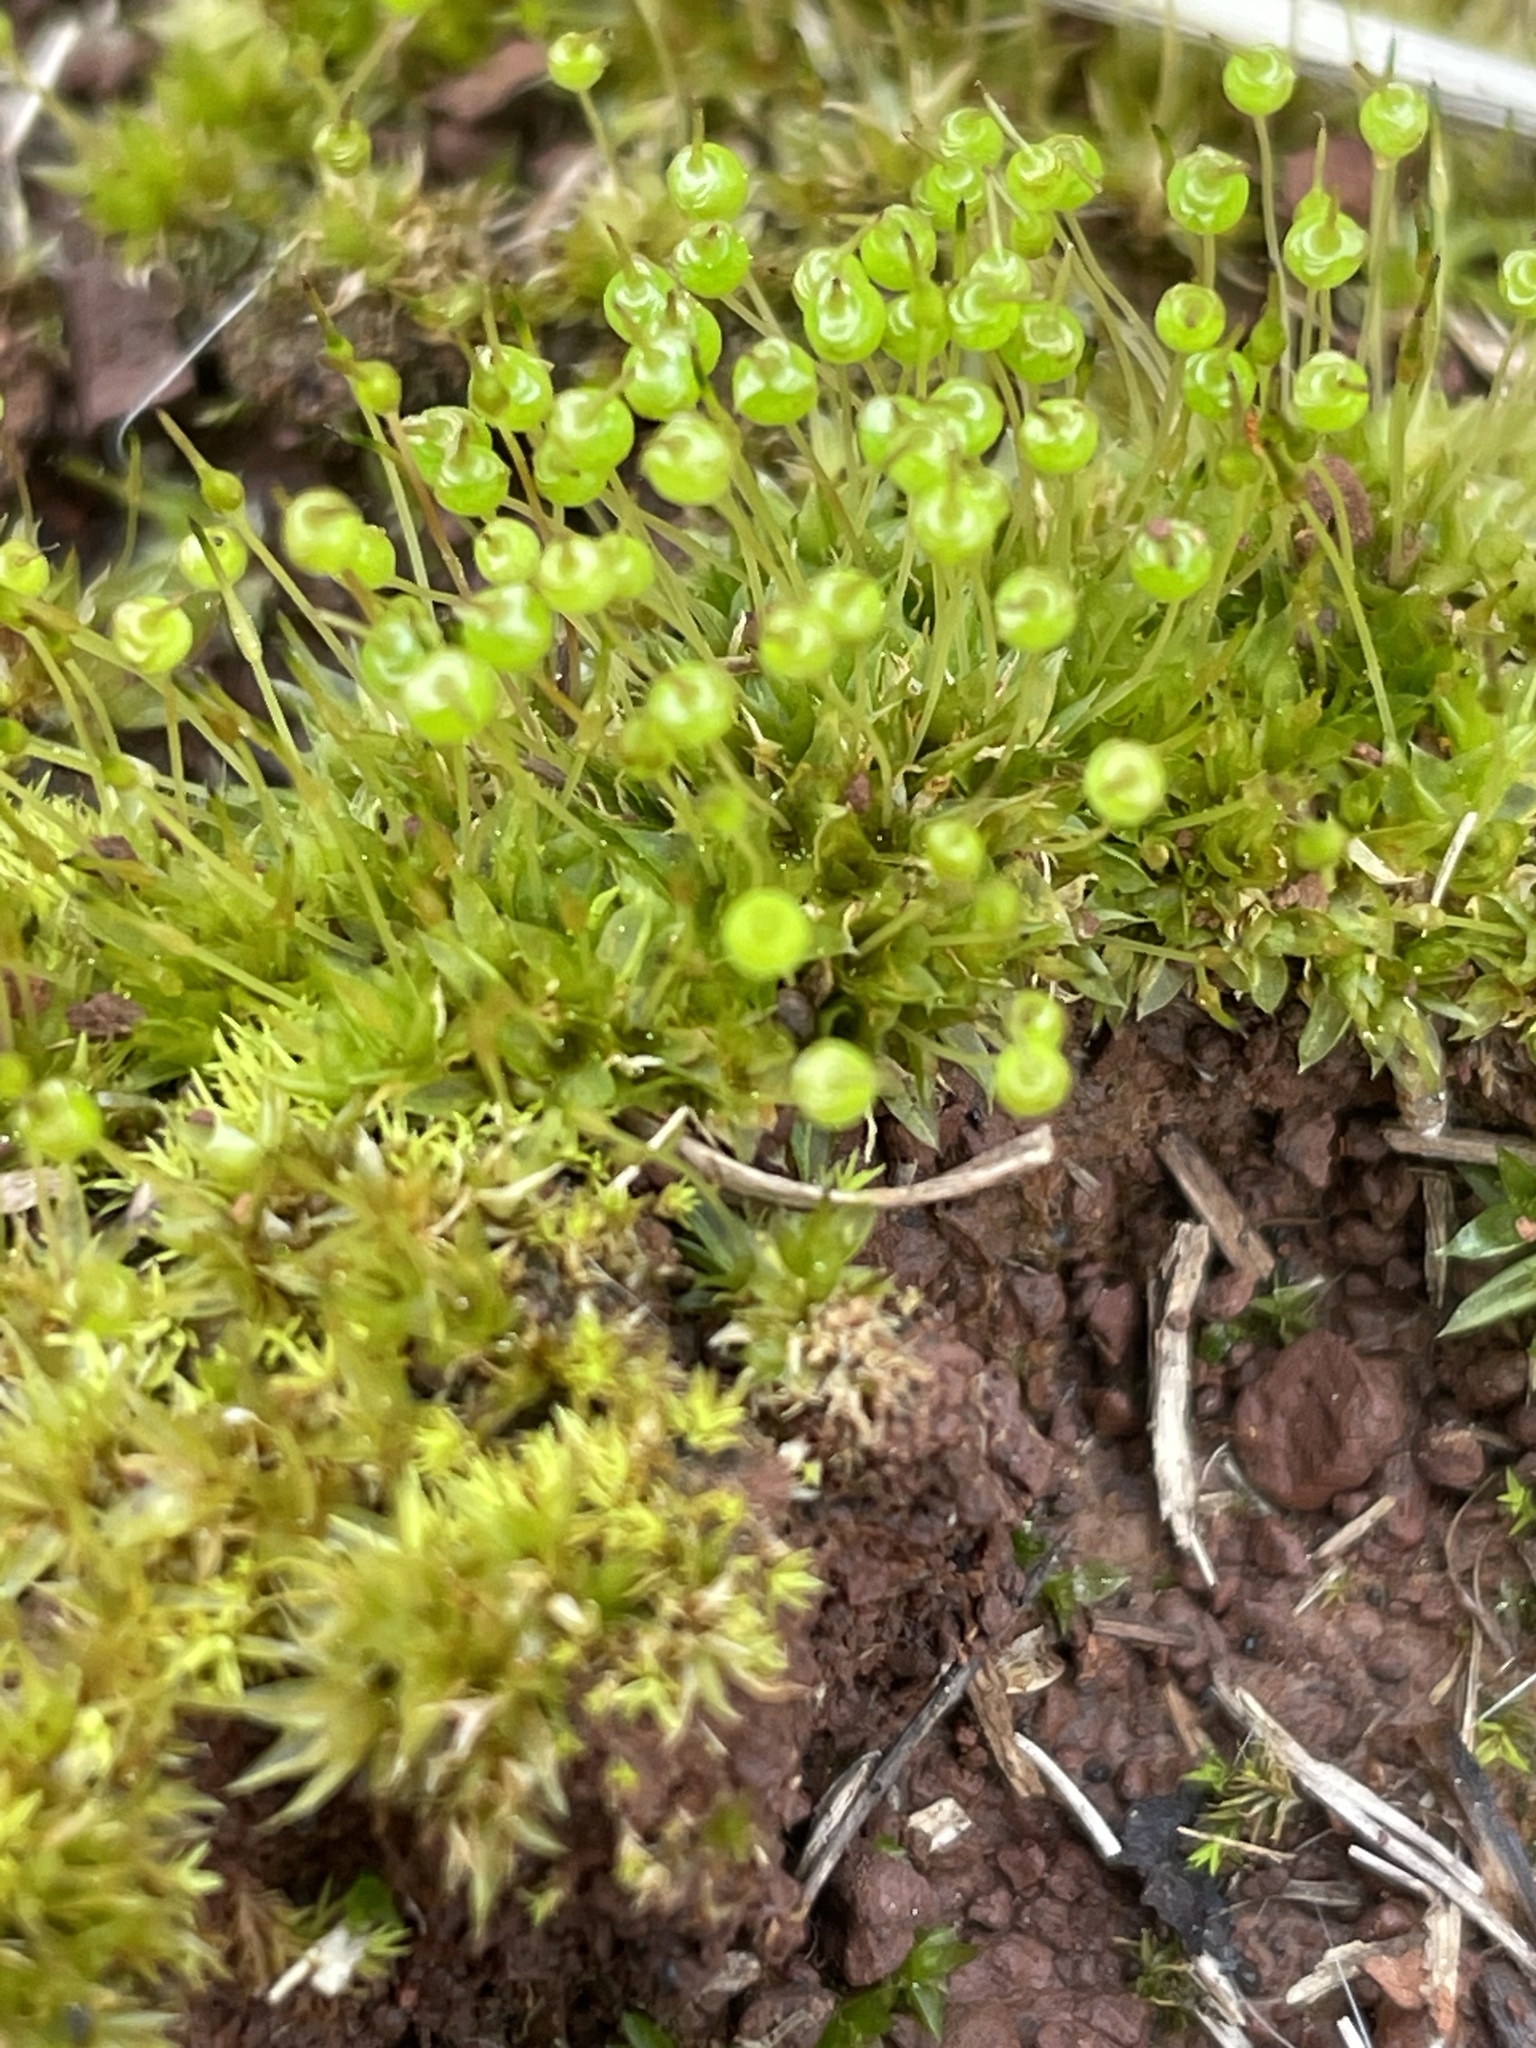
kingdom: Plantae
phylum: Bryophyta
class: Bryopsida
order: Funariales
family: Funariaceae
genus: Physcomitrium
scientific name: Physcomitrium pyriforme
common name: Common bladder-moss
